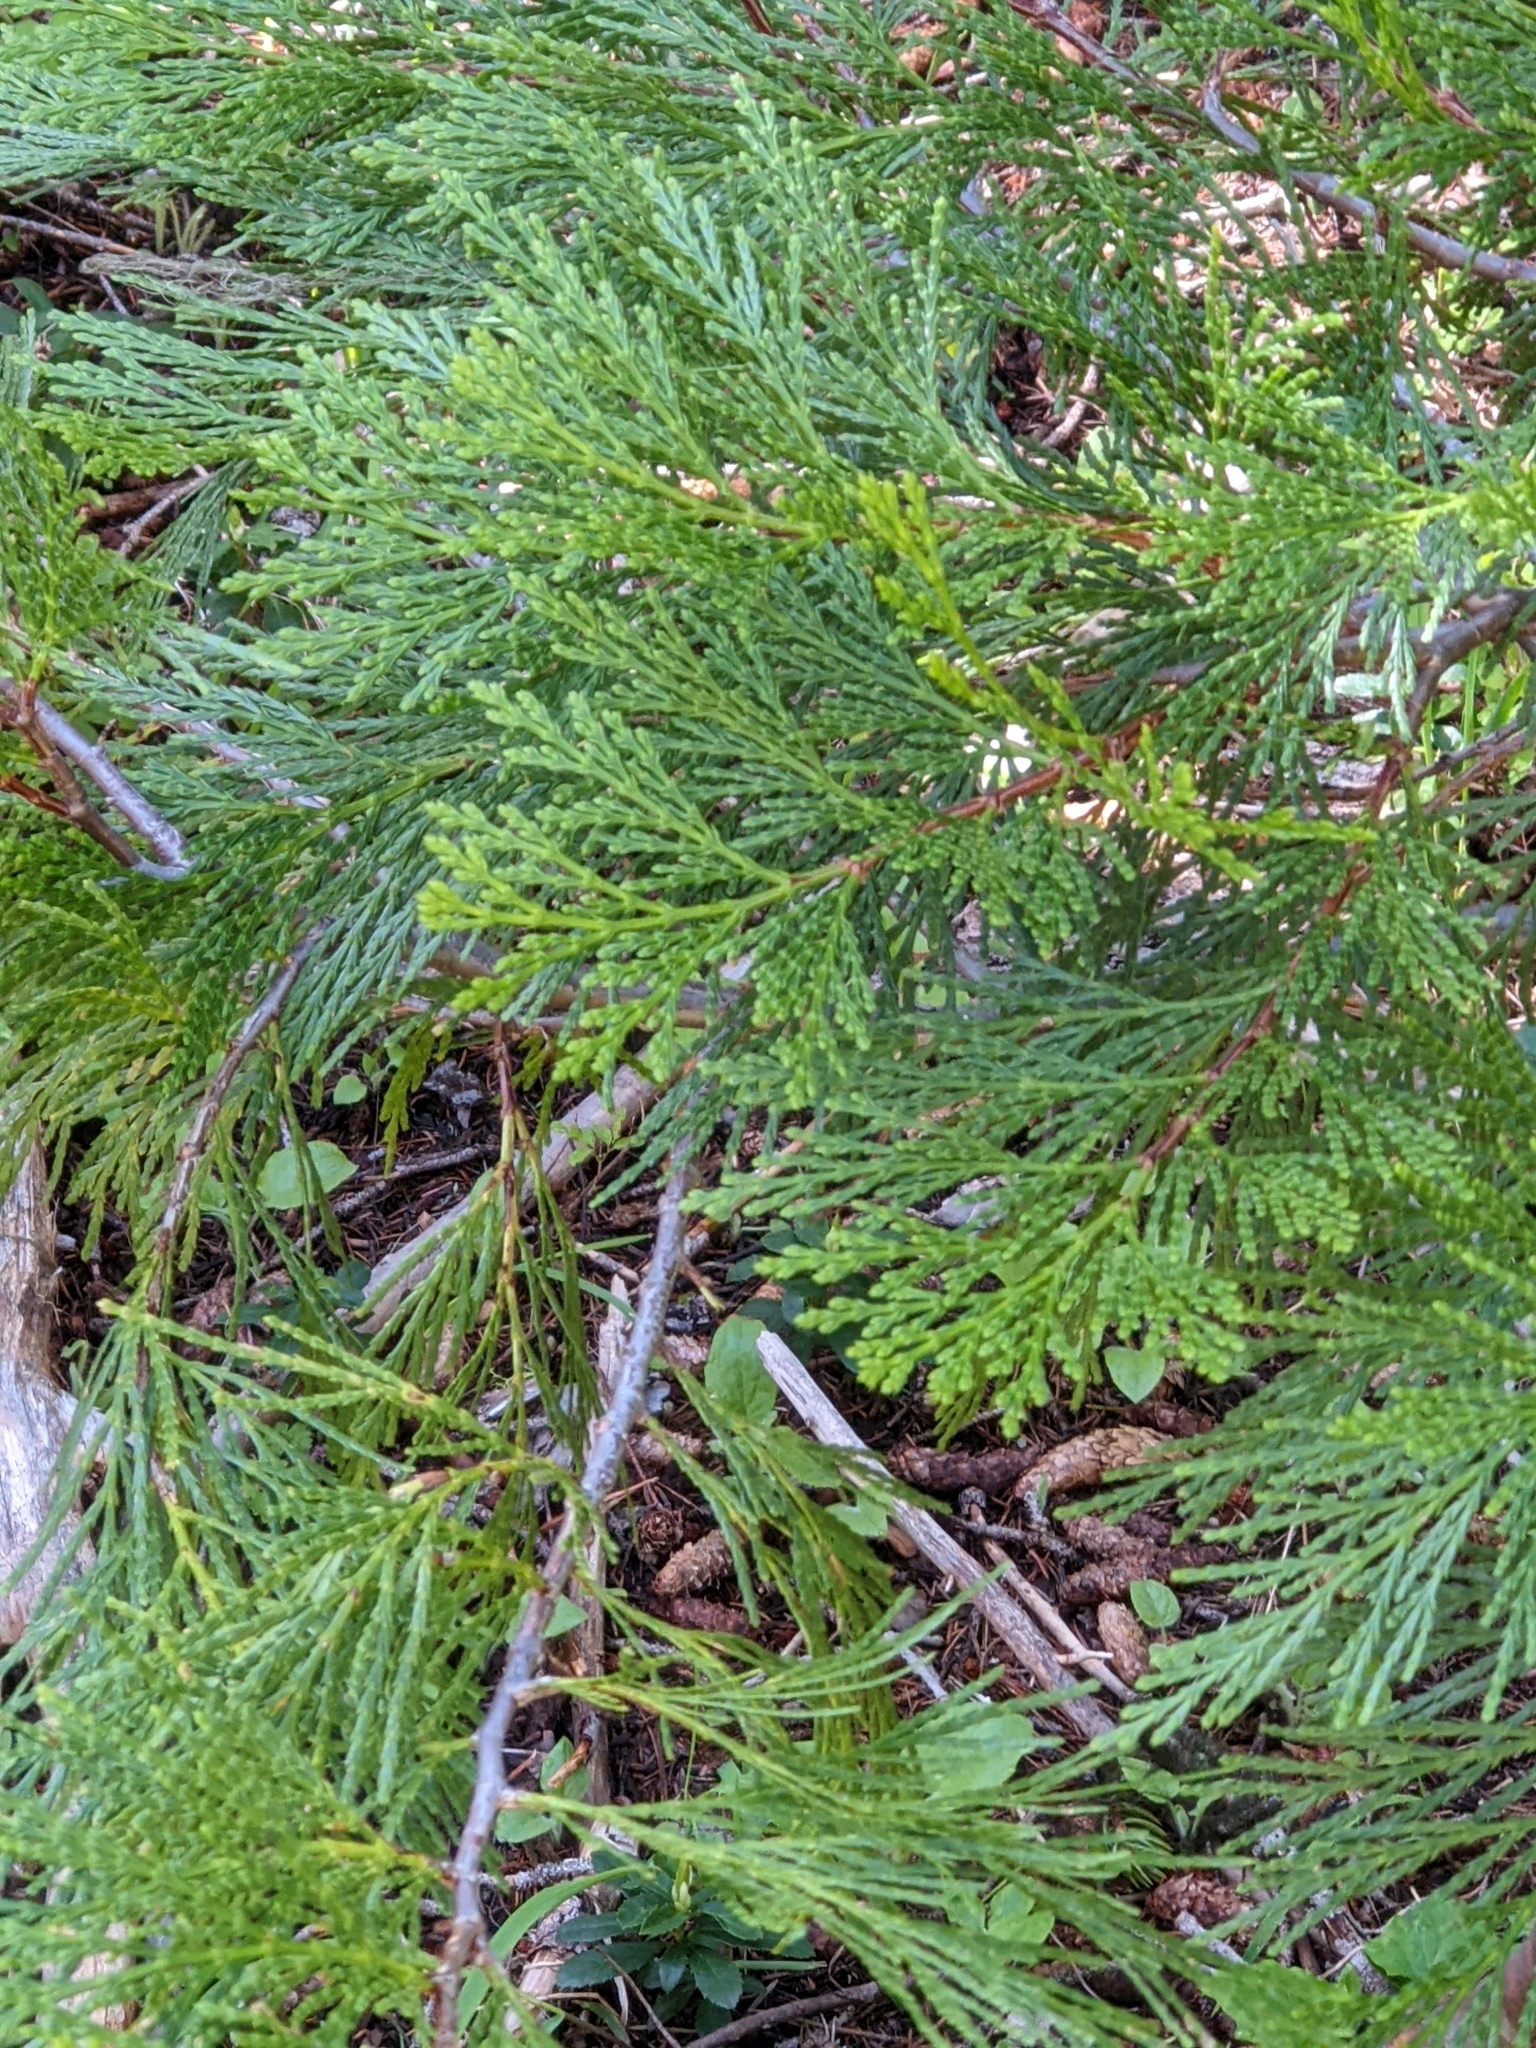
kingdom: Plantae
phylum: Tracheophyta
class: Pinopsida
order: Pinales
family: Cupressaceae
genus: Calocedrus
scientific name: Calocedrus decurrens
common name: Californian incense-cedar
